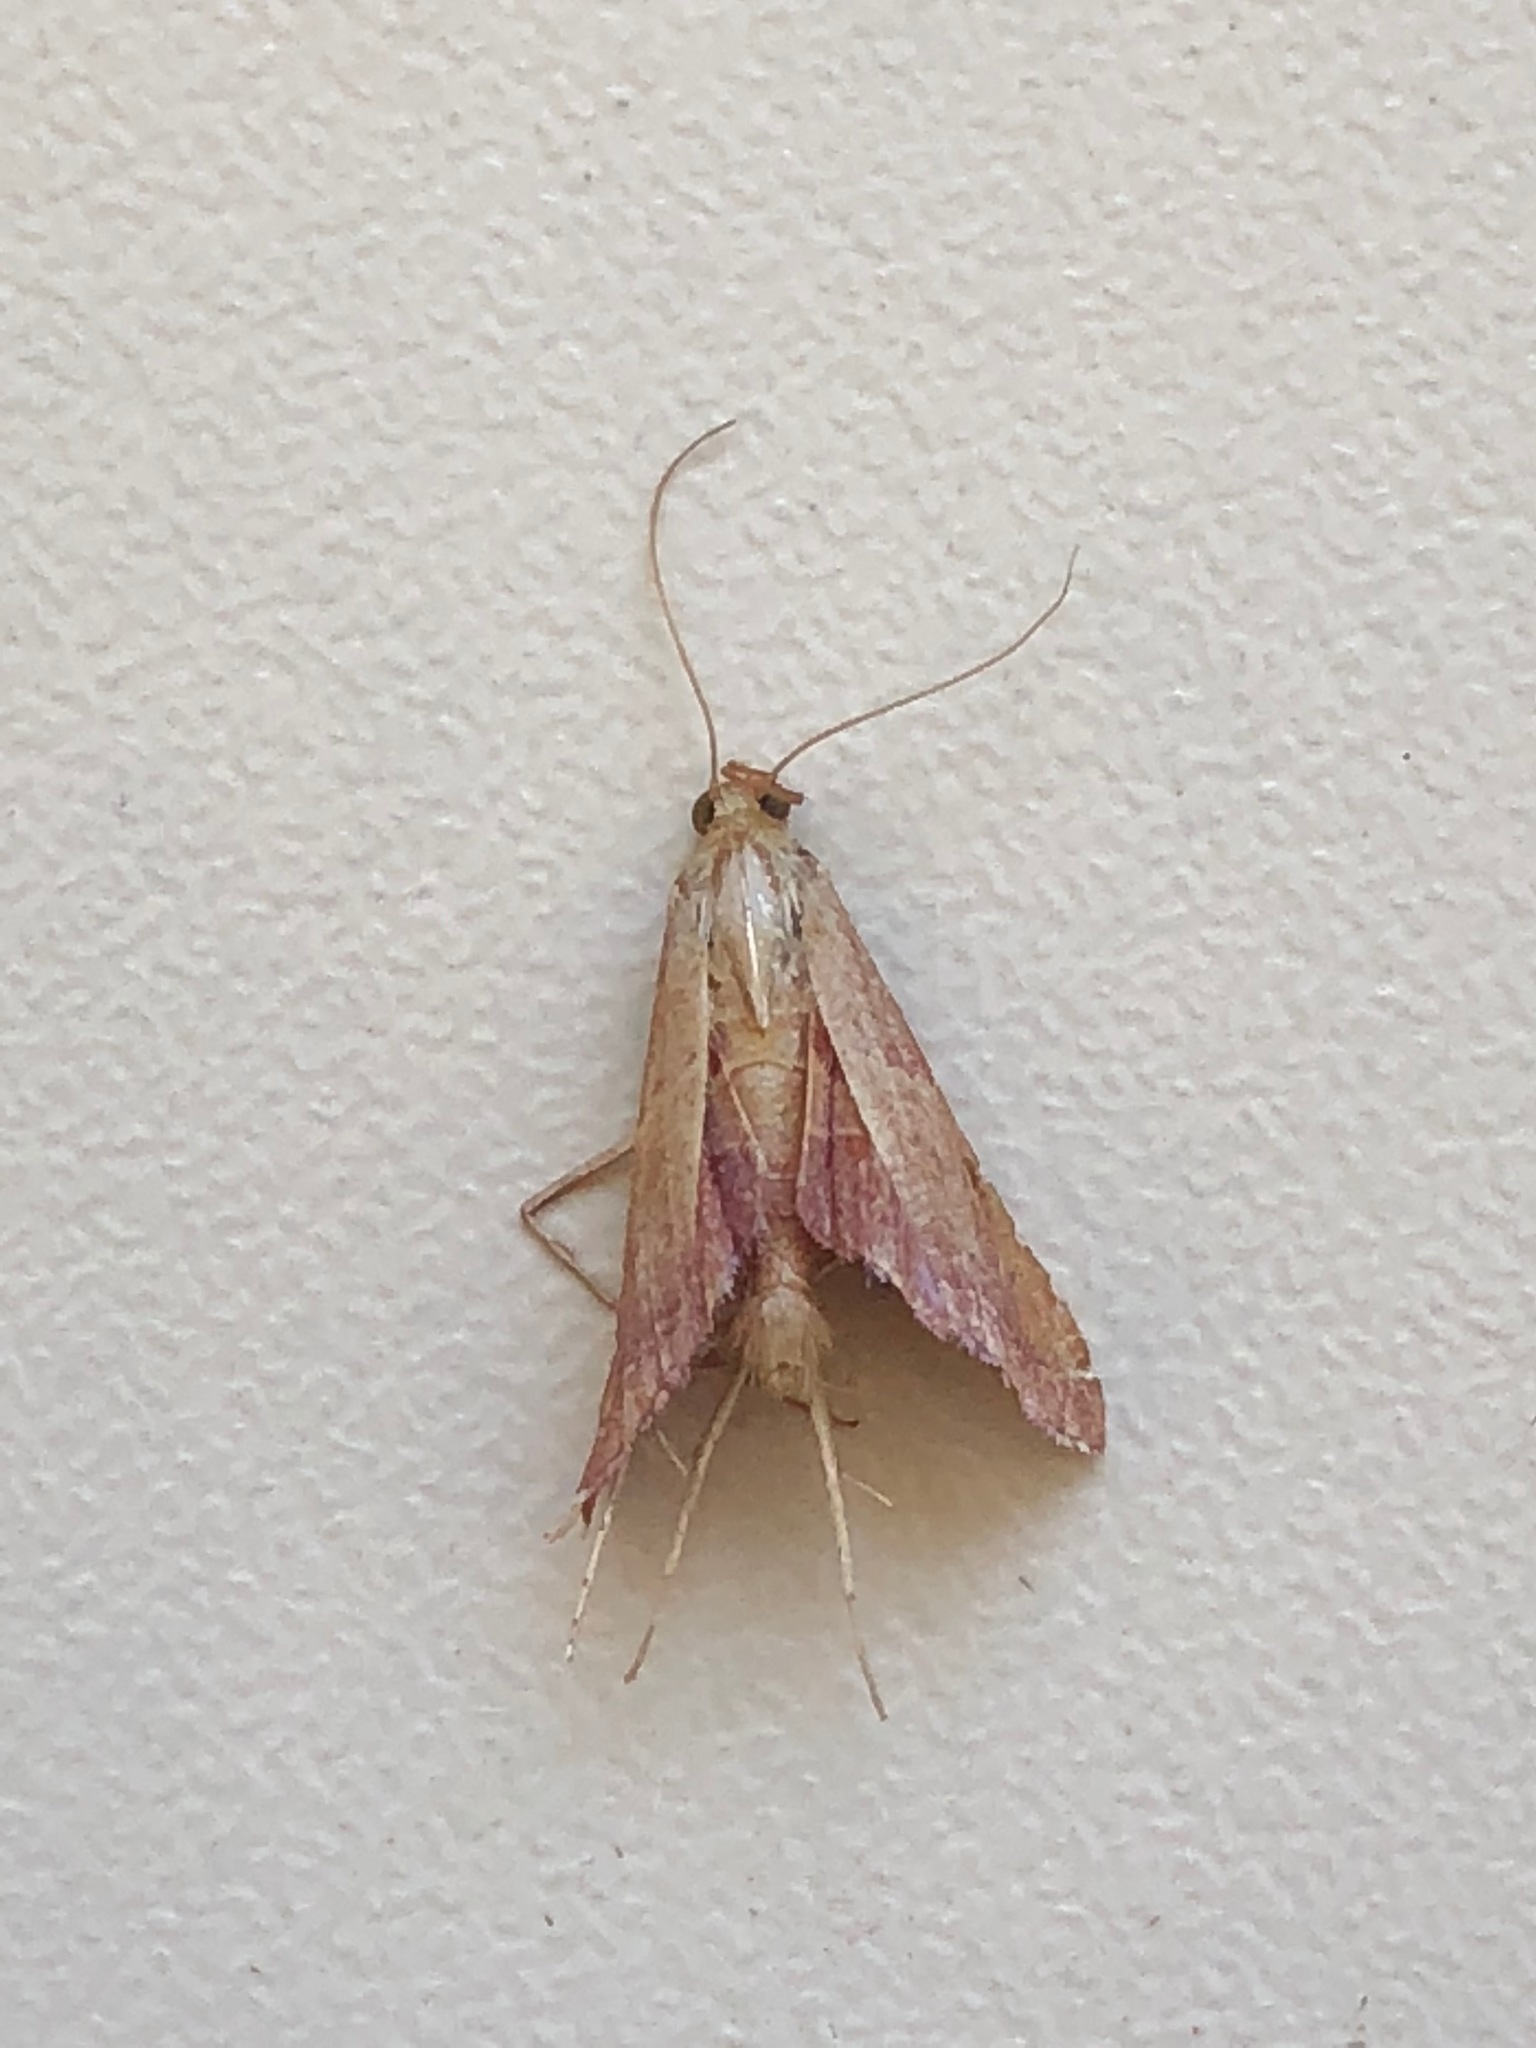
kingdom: Animalia
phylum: Arthropoda
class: Insecta
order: Lepidoptera
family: Pyralidae
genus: Endotricha
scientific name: Endotricha flammealis
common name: Rosy tabby
